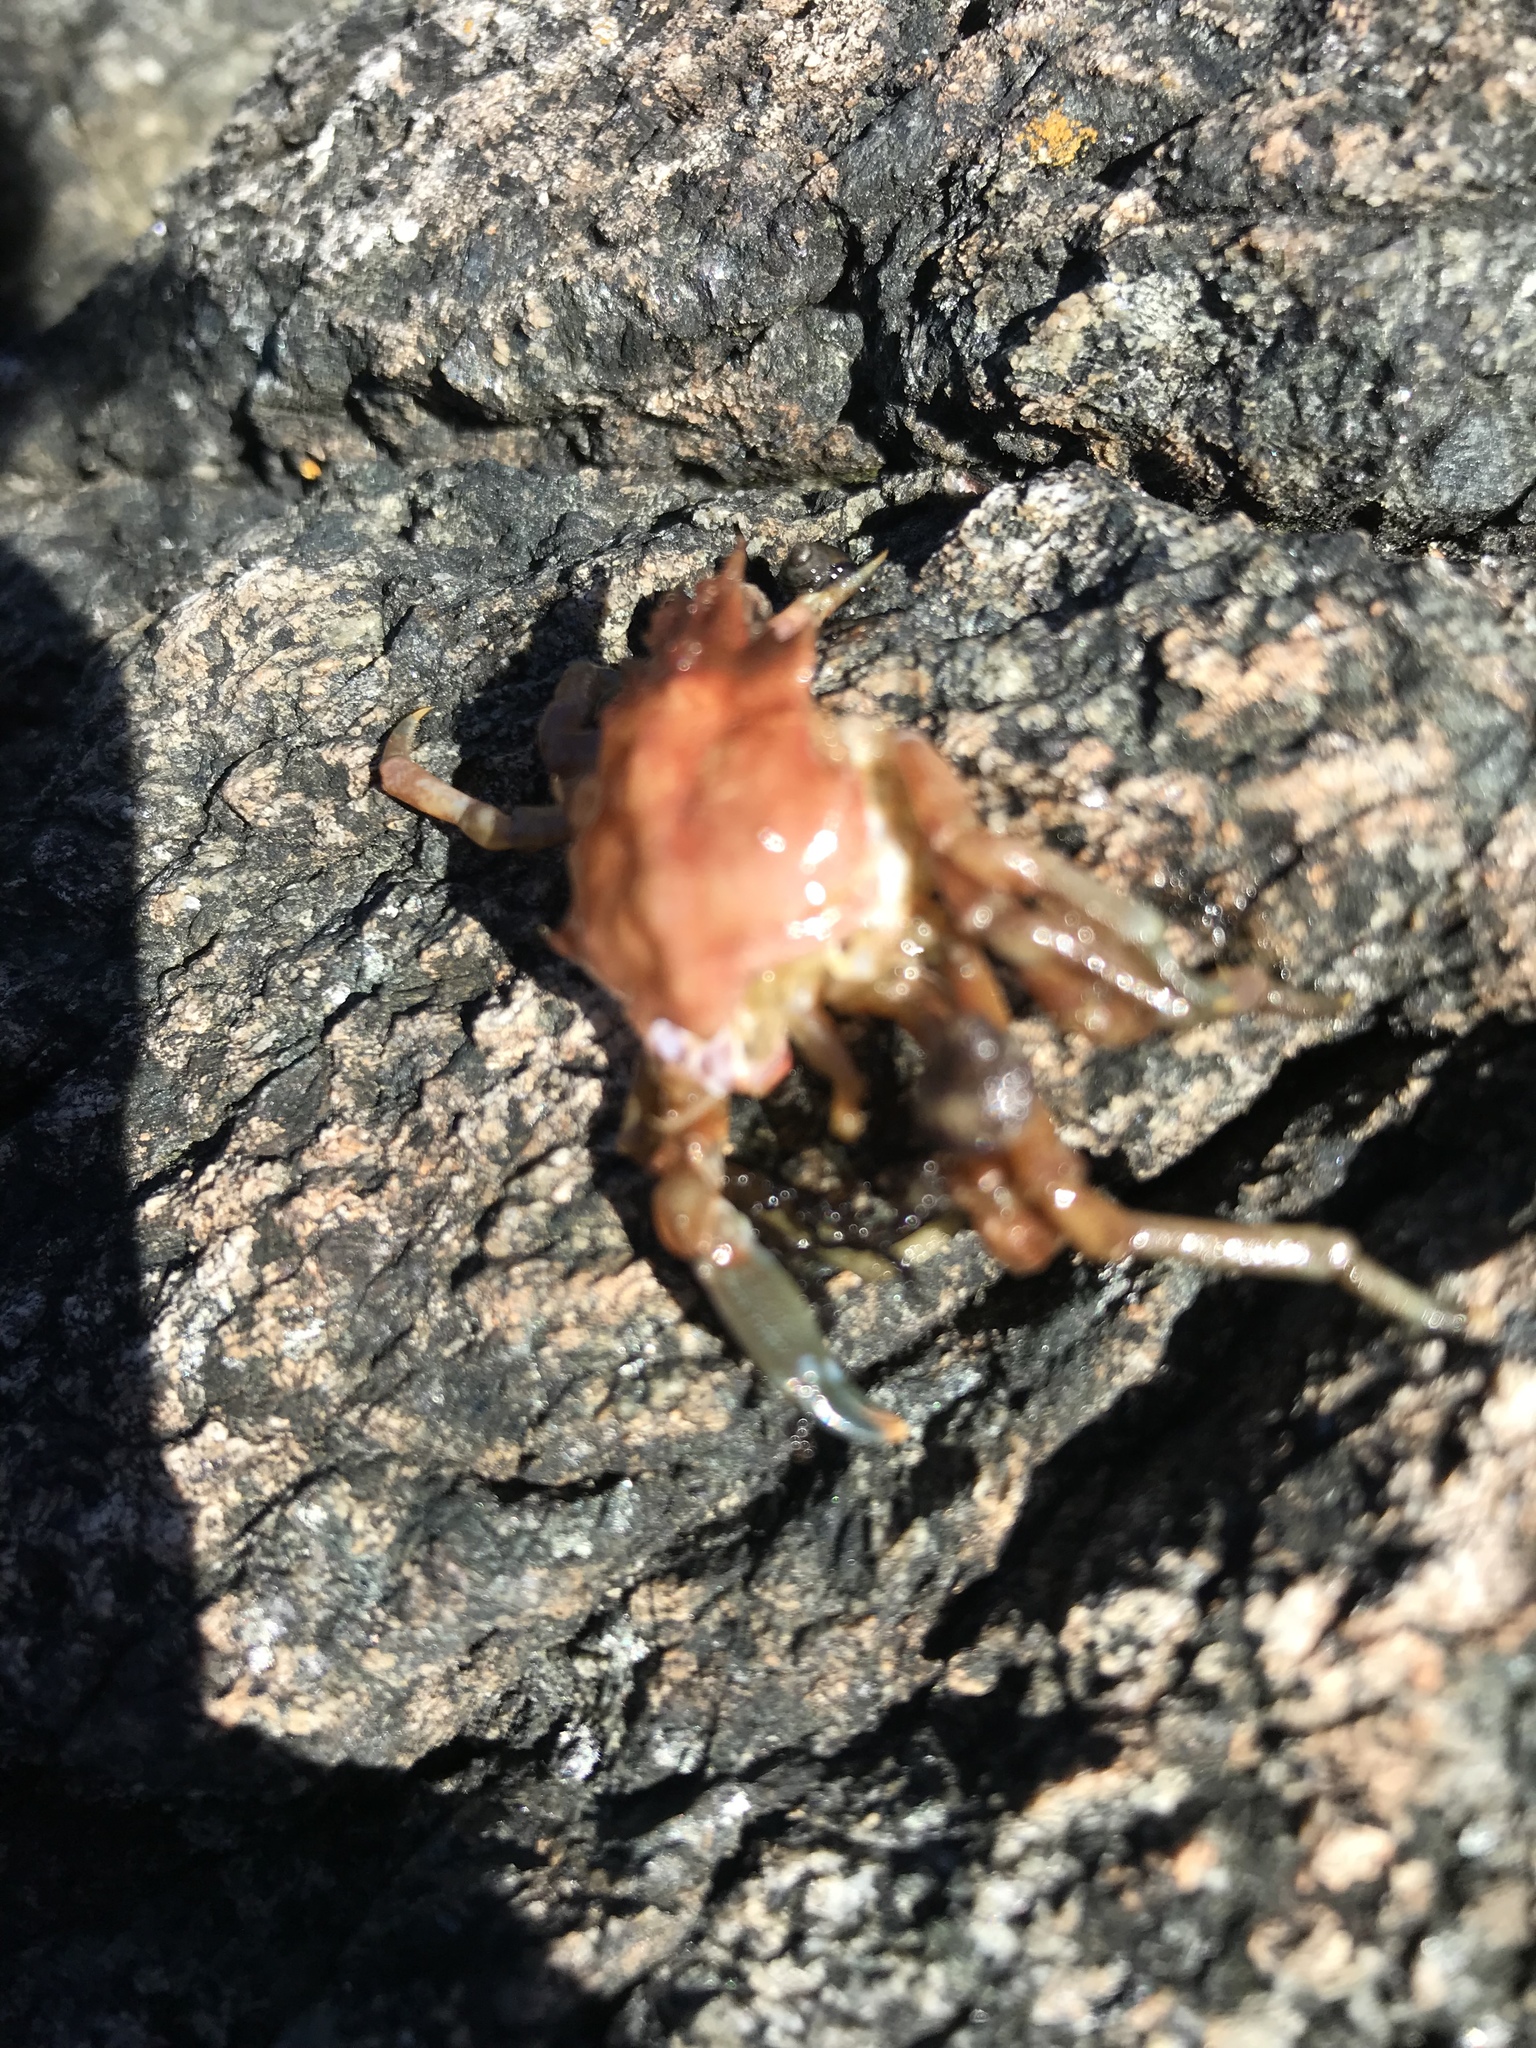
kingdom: Animalia
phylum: Arthropoda
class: Malacostraca
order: Decapoda
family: Epialtidae
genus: Pugettia
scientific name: Pugettia gracilis
